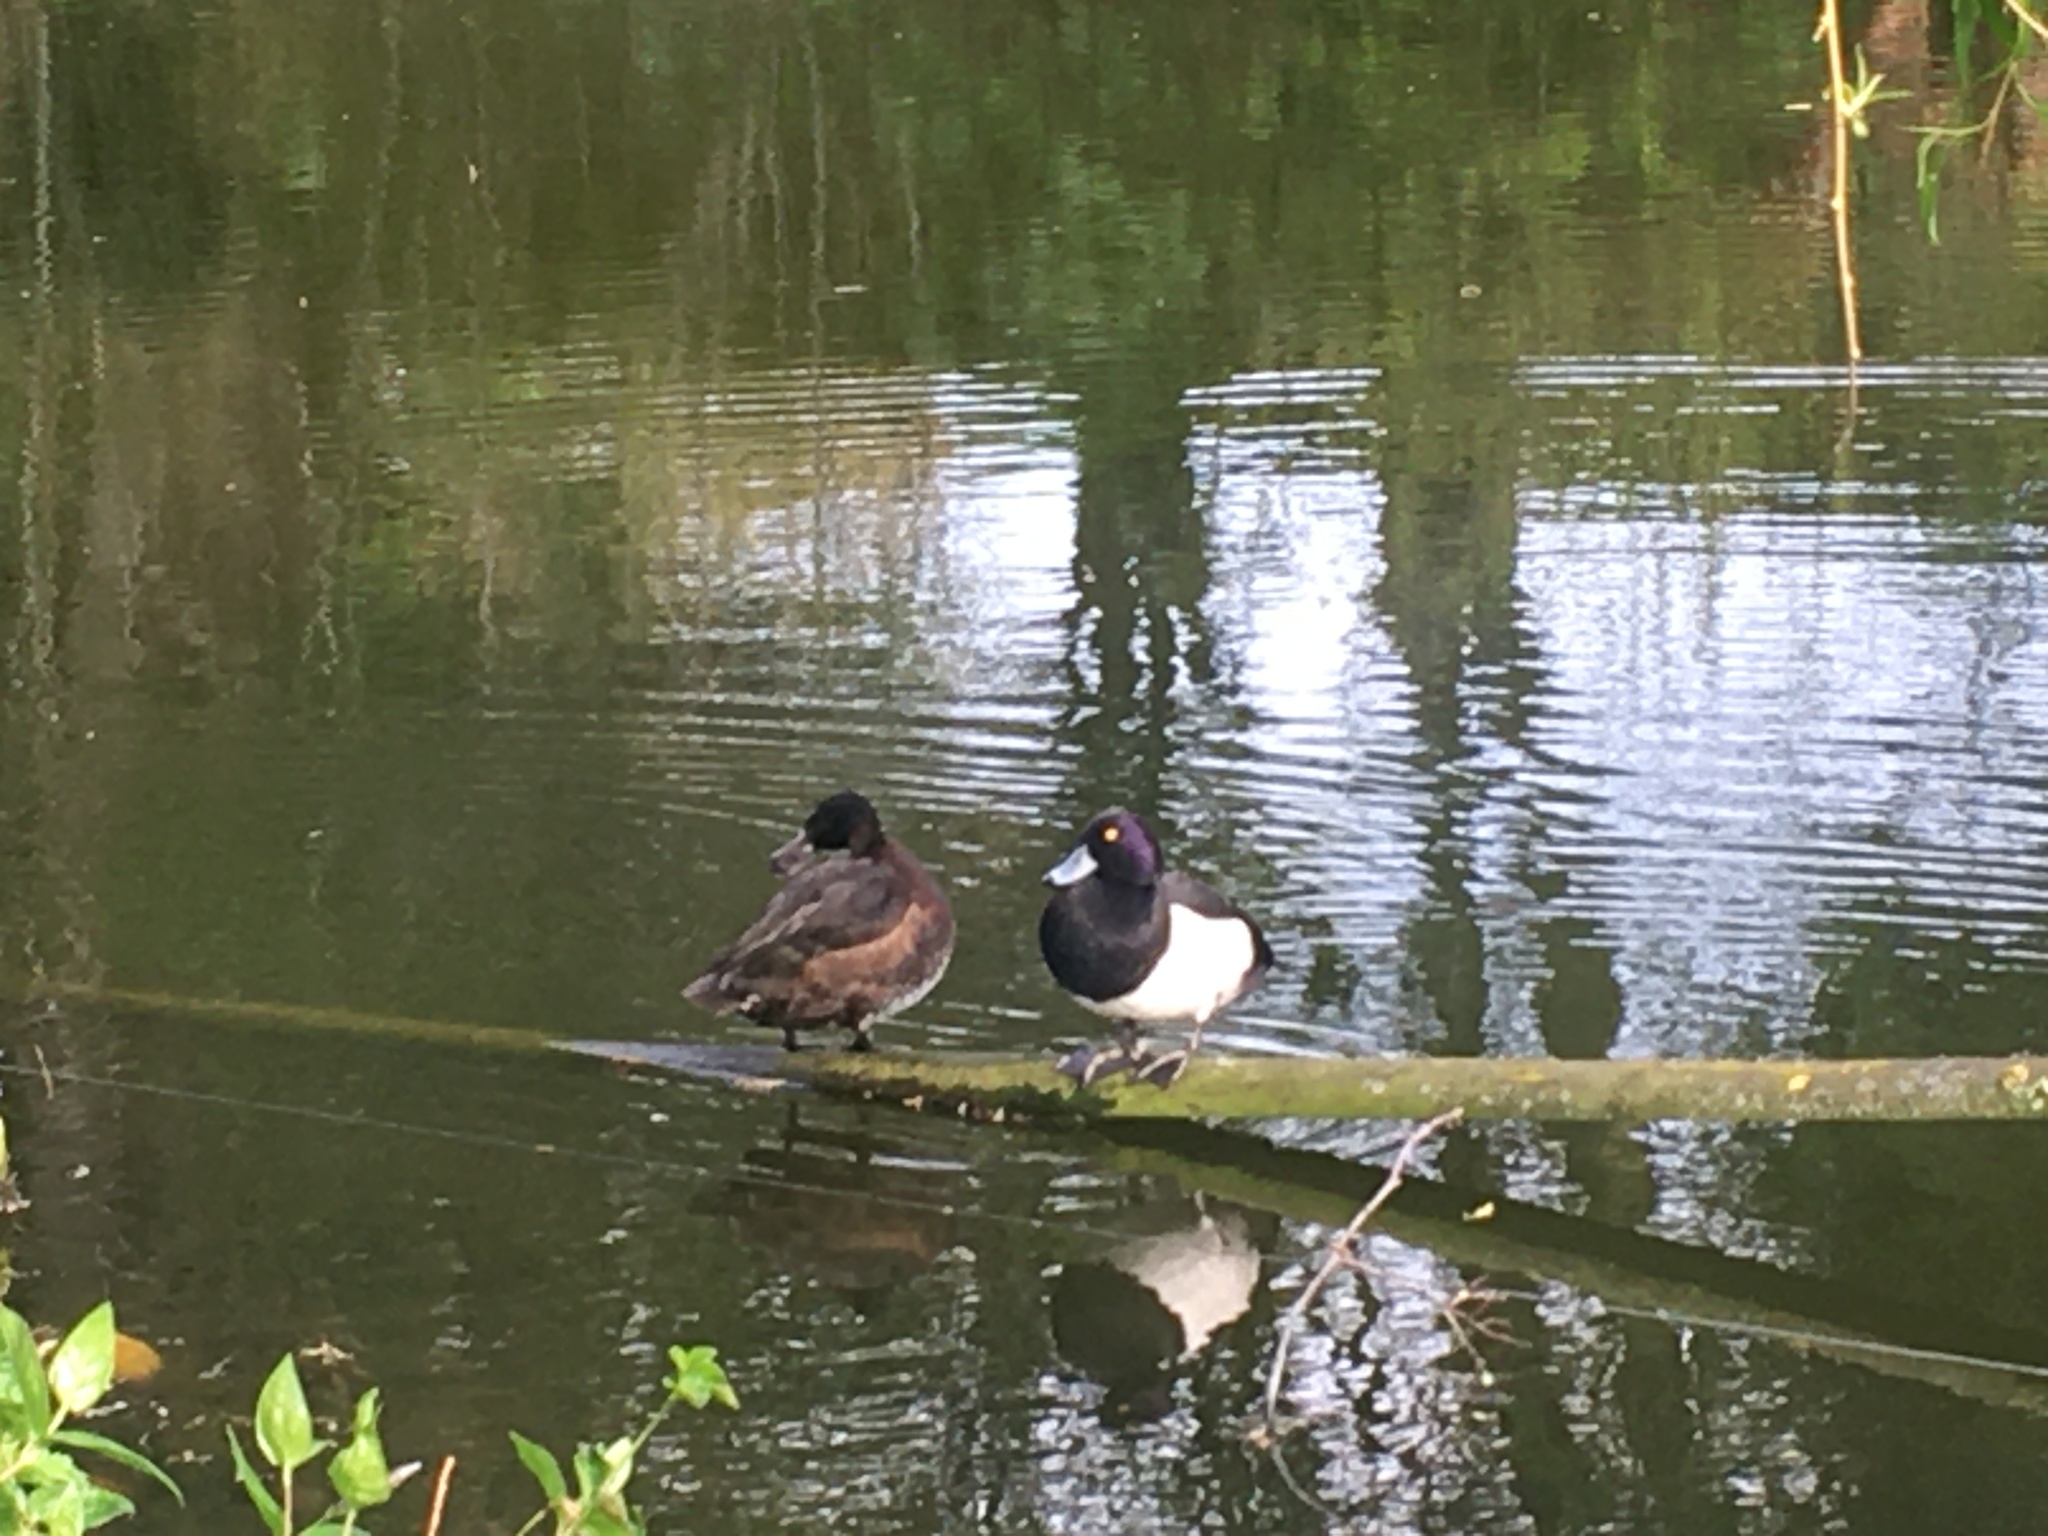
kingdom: Animalia
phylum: Chordata
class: Aves
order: Anseriformes
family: Anatidae
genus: Aythya
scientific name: Aythya fuligula
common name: Tufted duck
